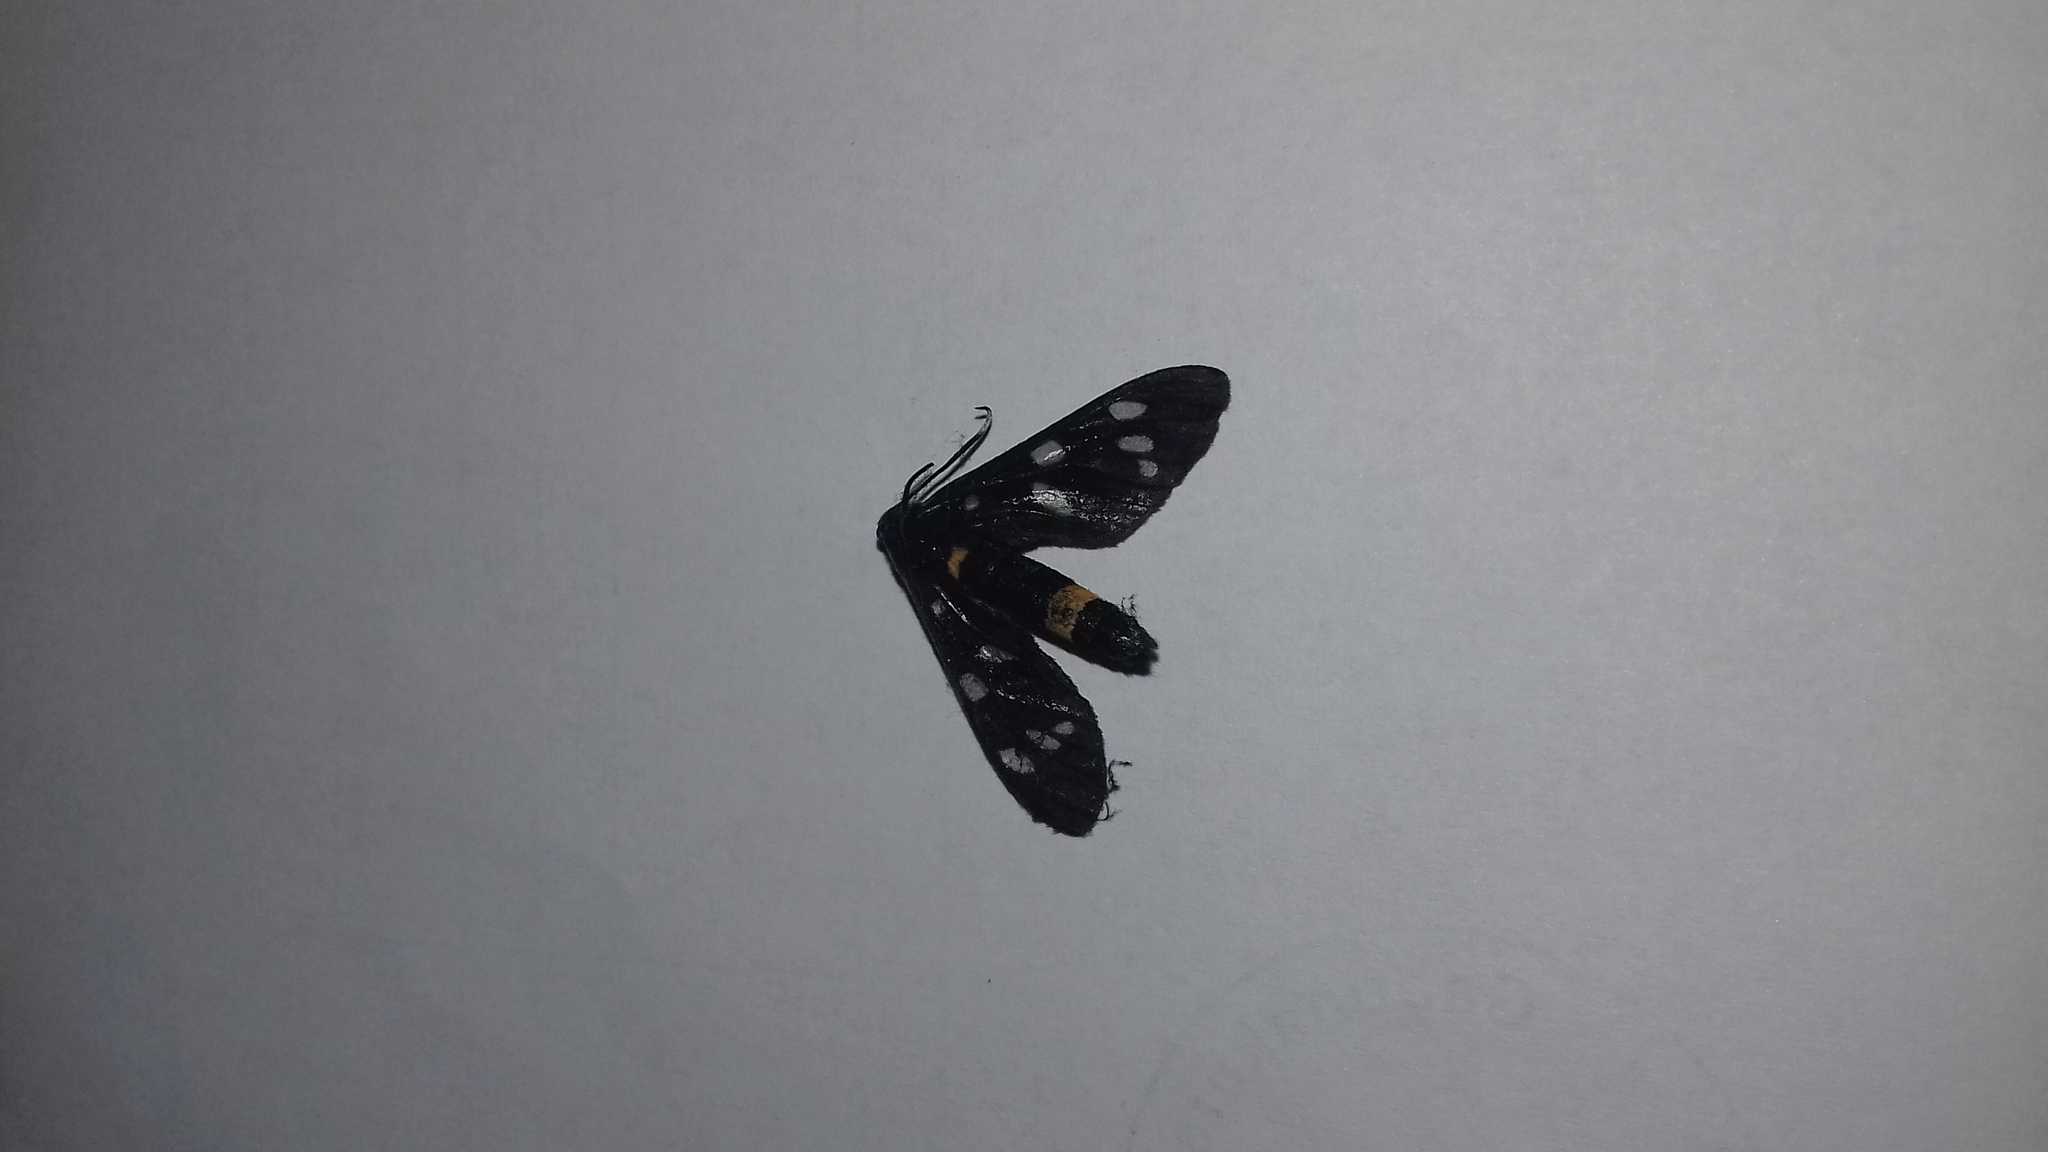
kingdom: Animalia
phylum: Arthropoda
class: Insecta
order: Lepidoptera
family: Erebidae
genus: Amata
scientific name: Amata phegea
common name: Nine-spotted
